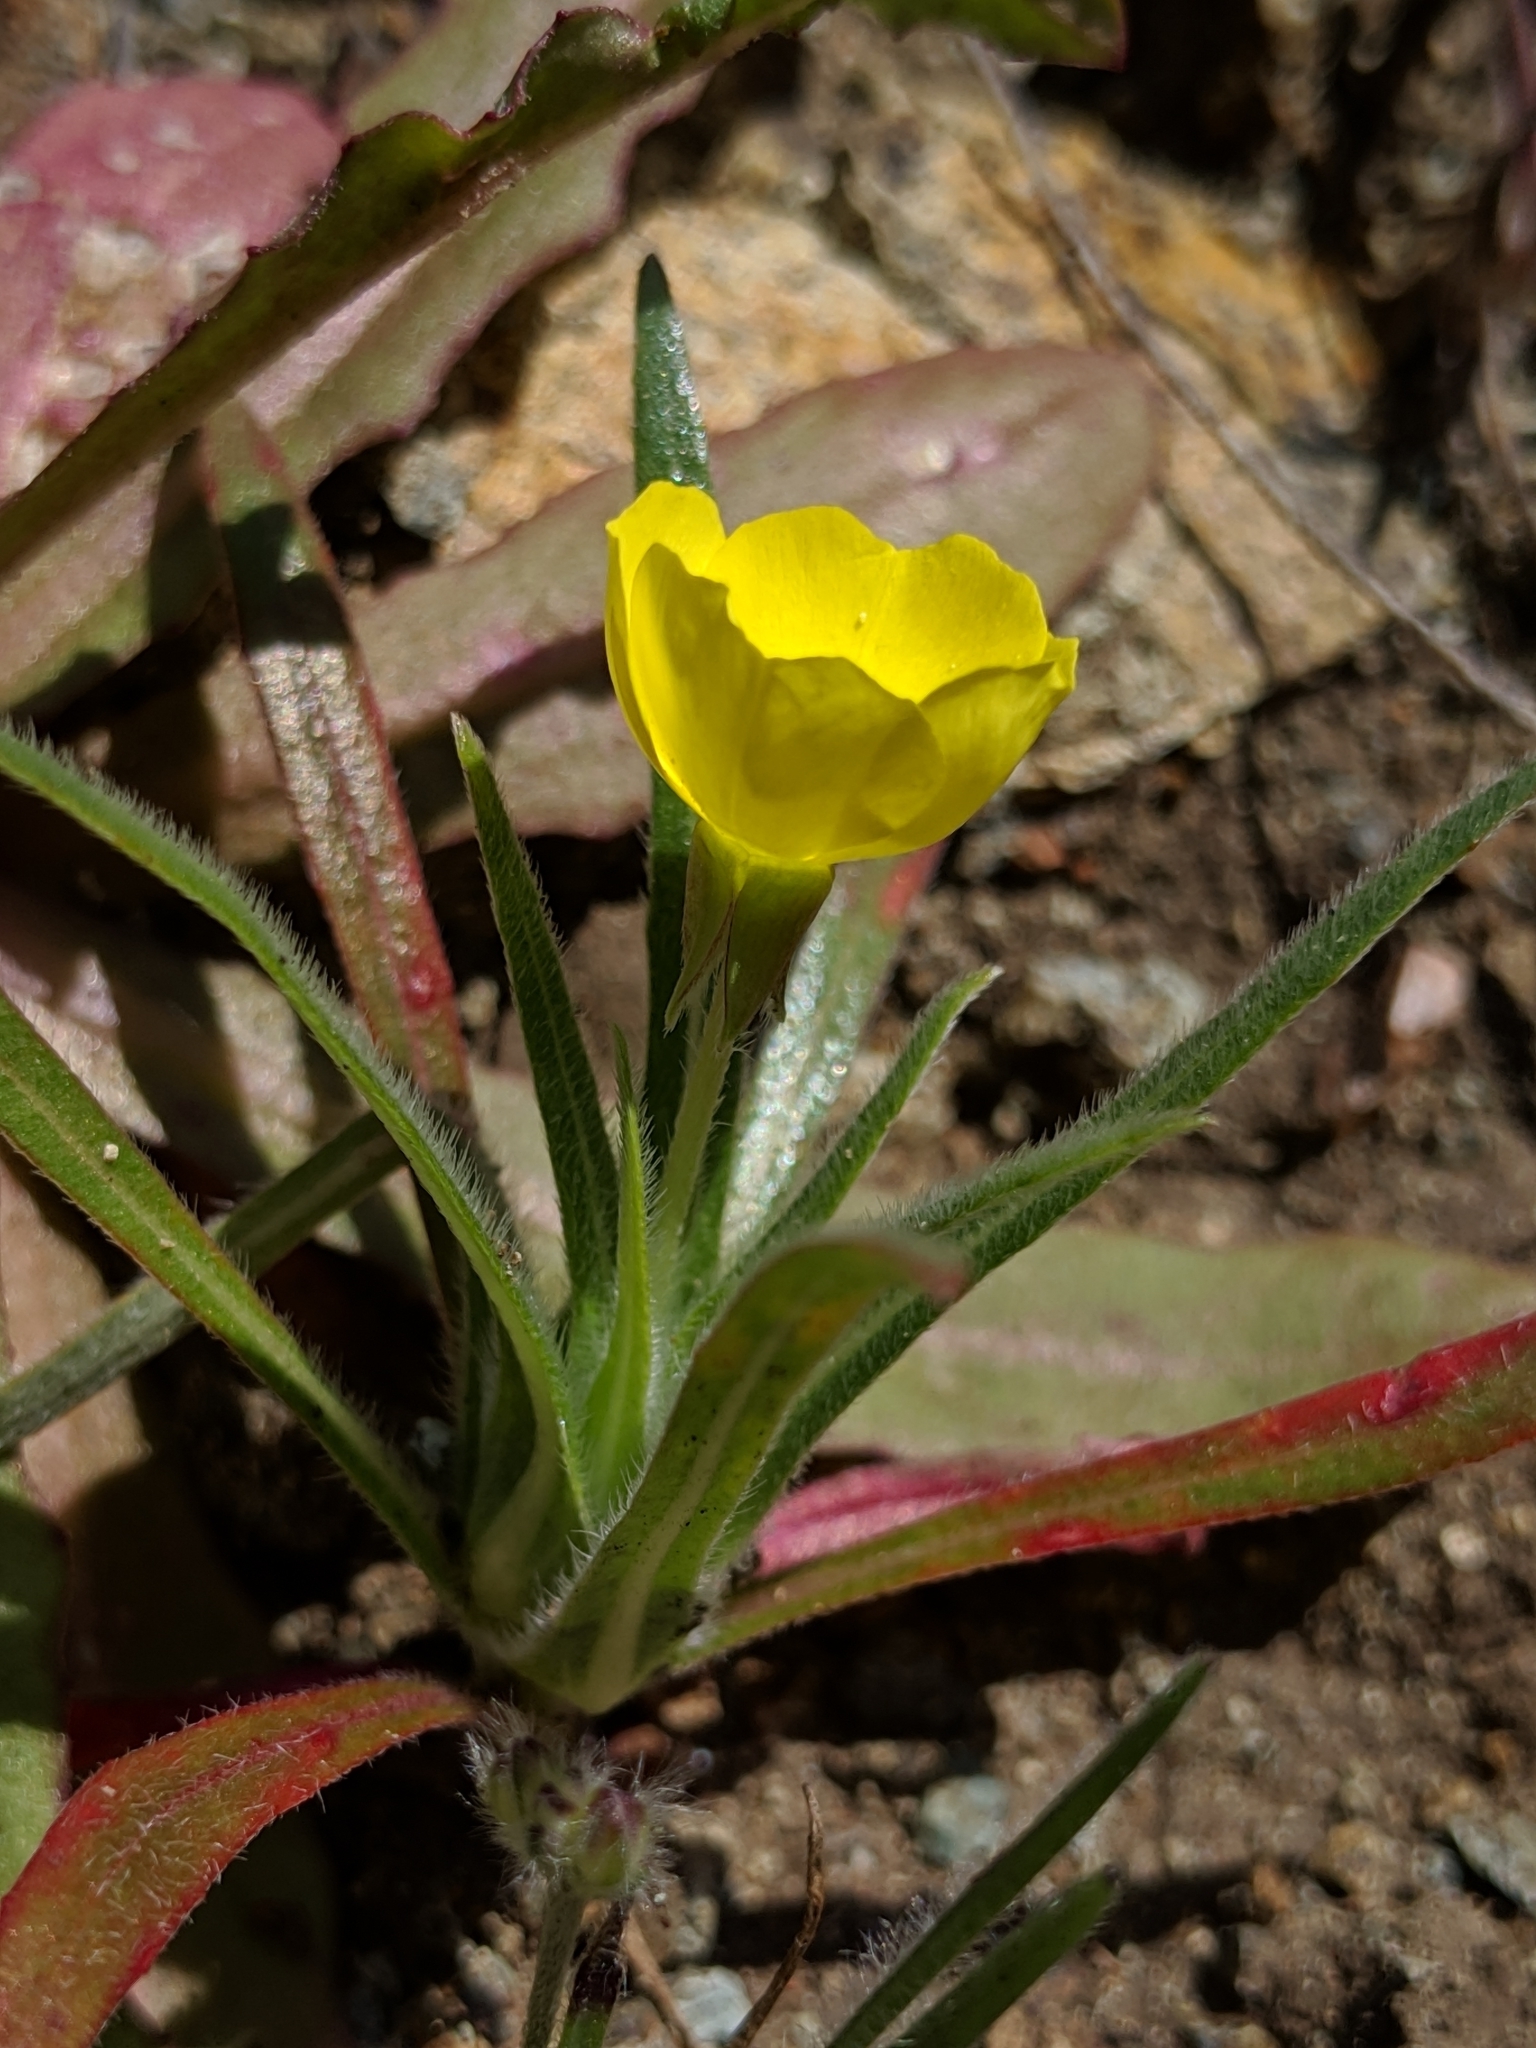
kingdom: Plantae
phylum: Tracheophyta
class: Magnoliopsida
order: Myrtales
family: Onagraceae
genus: Tetrapteron
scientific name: Tetrapteron graciliflorum
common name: Hill suncup
